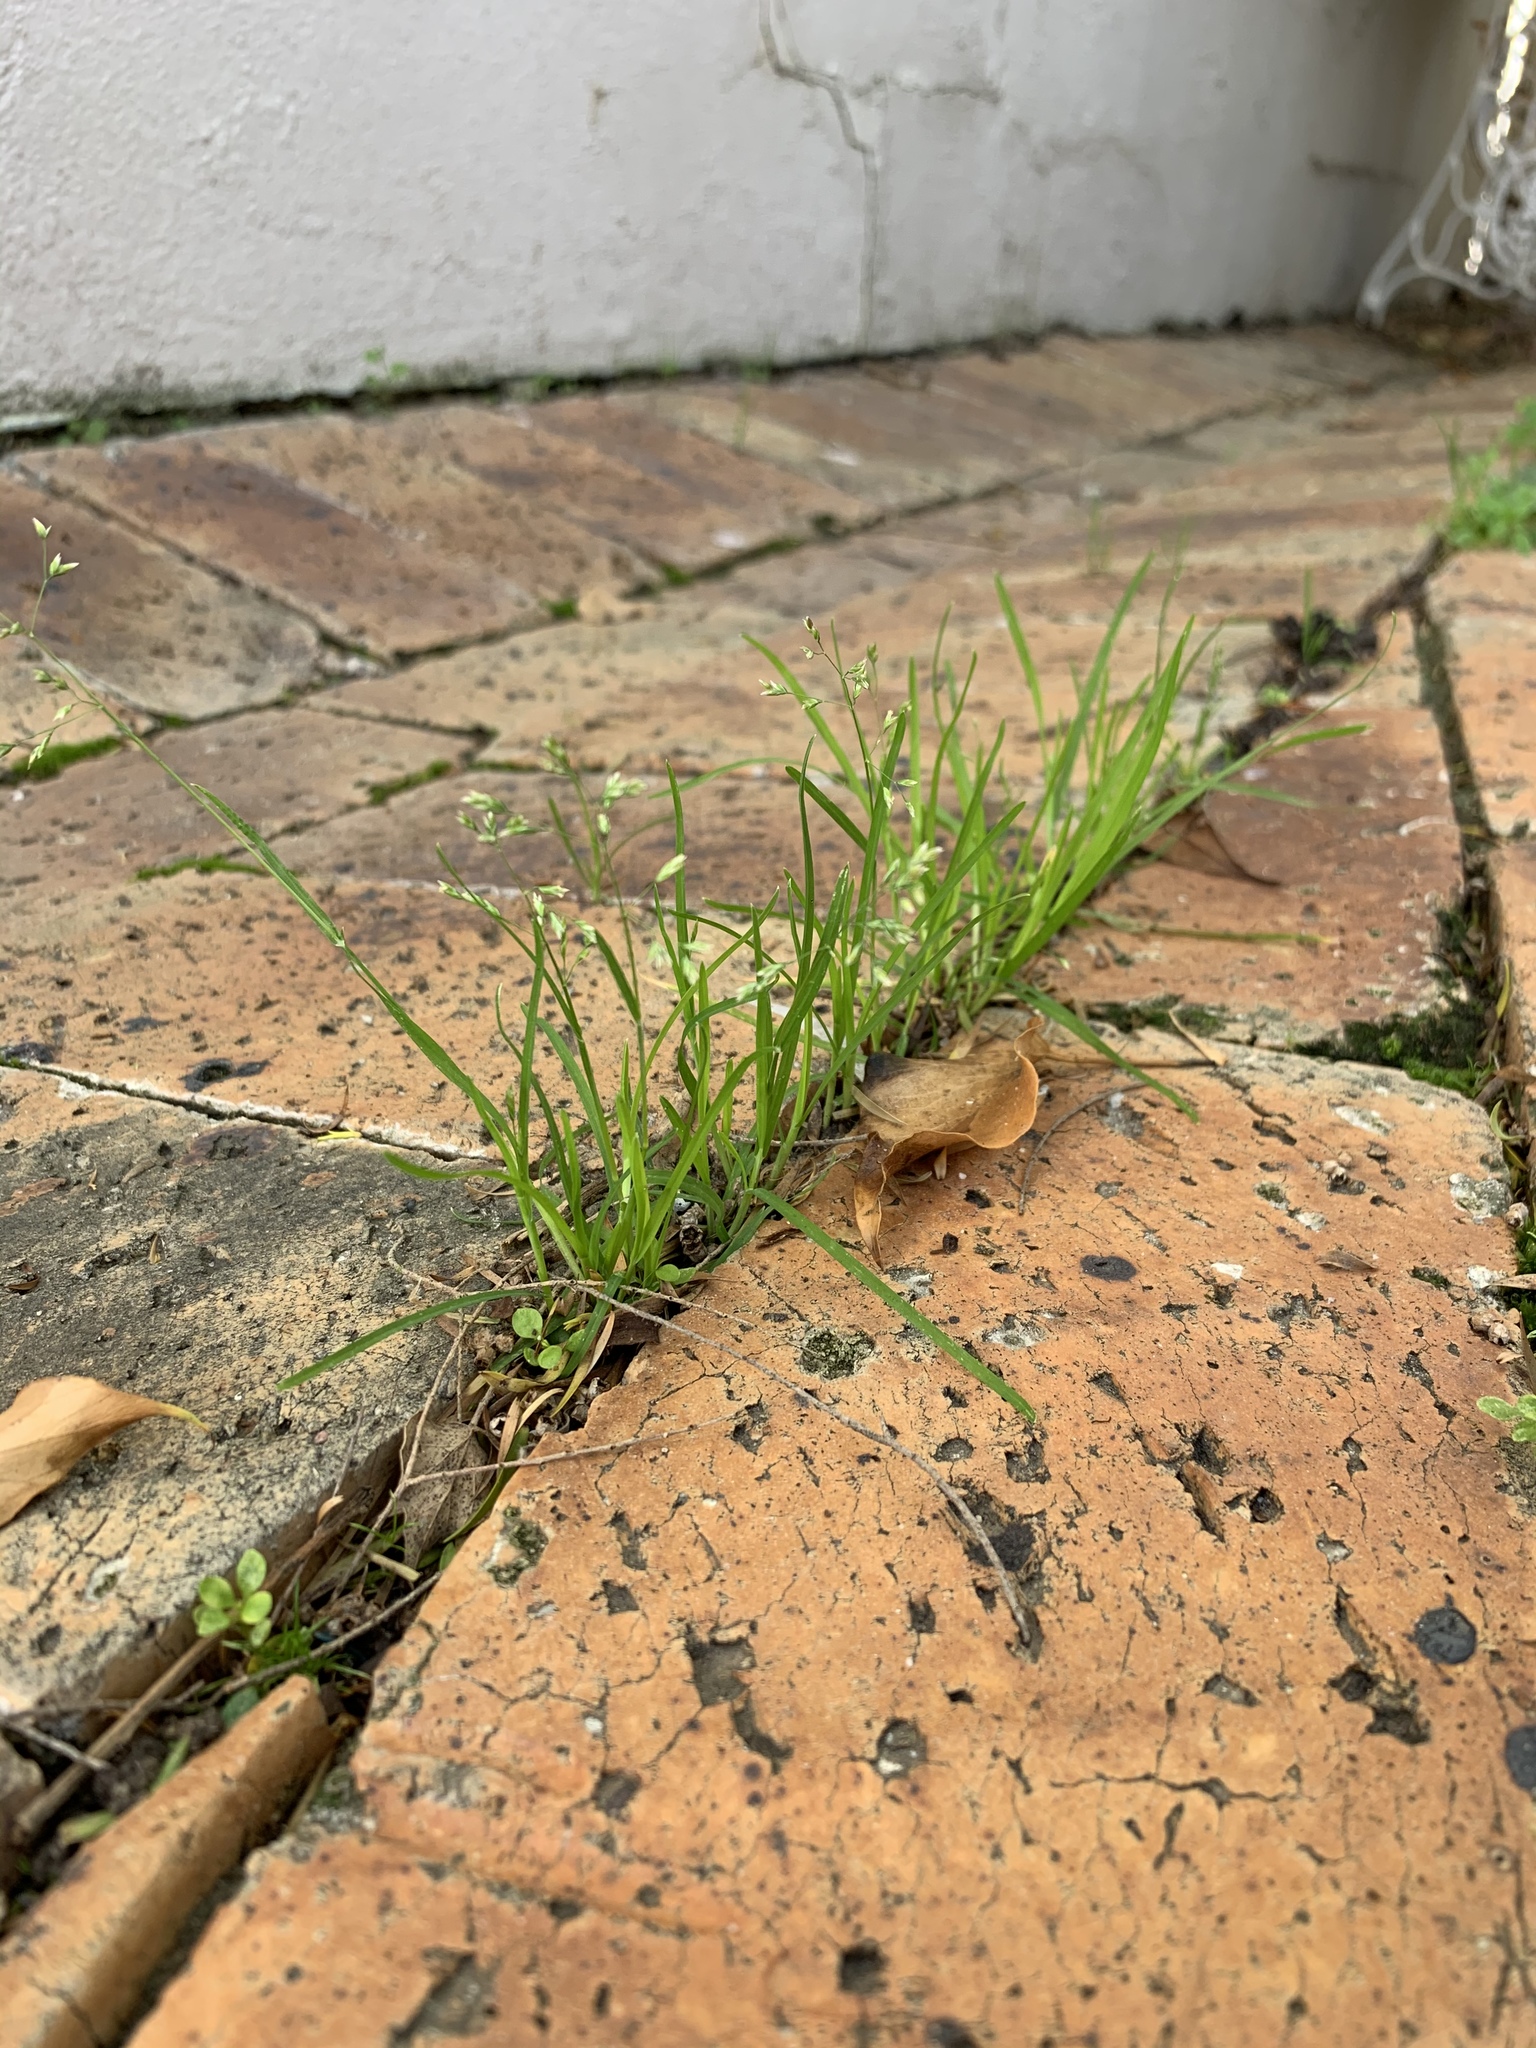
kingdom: Plantae
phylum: Tracheophyta
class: Liliopsida
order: Poales
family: Poaceae
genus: Poa
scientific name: Poa annua
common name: Annual bluegrass
